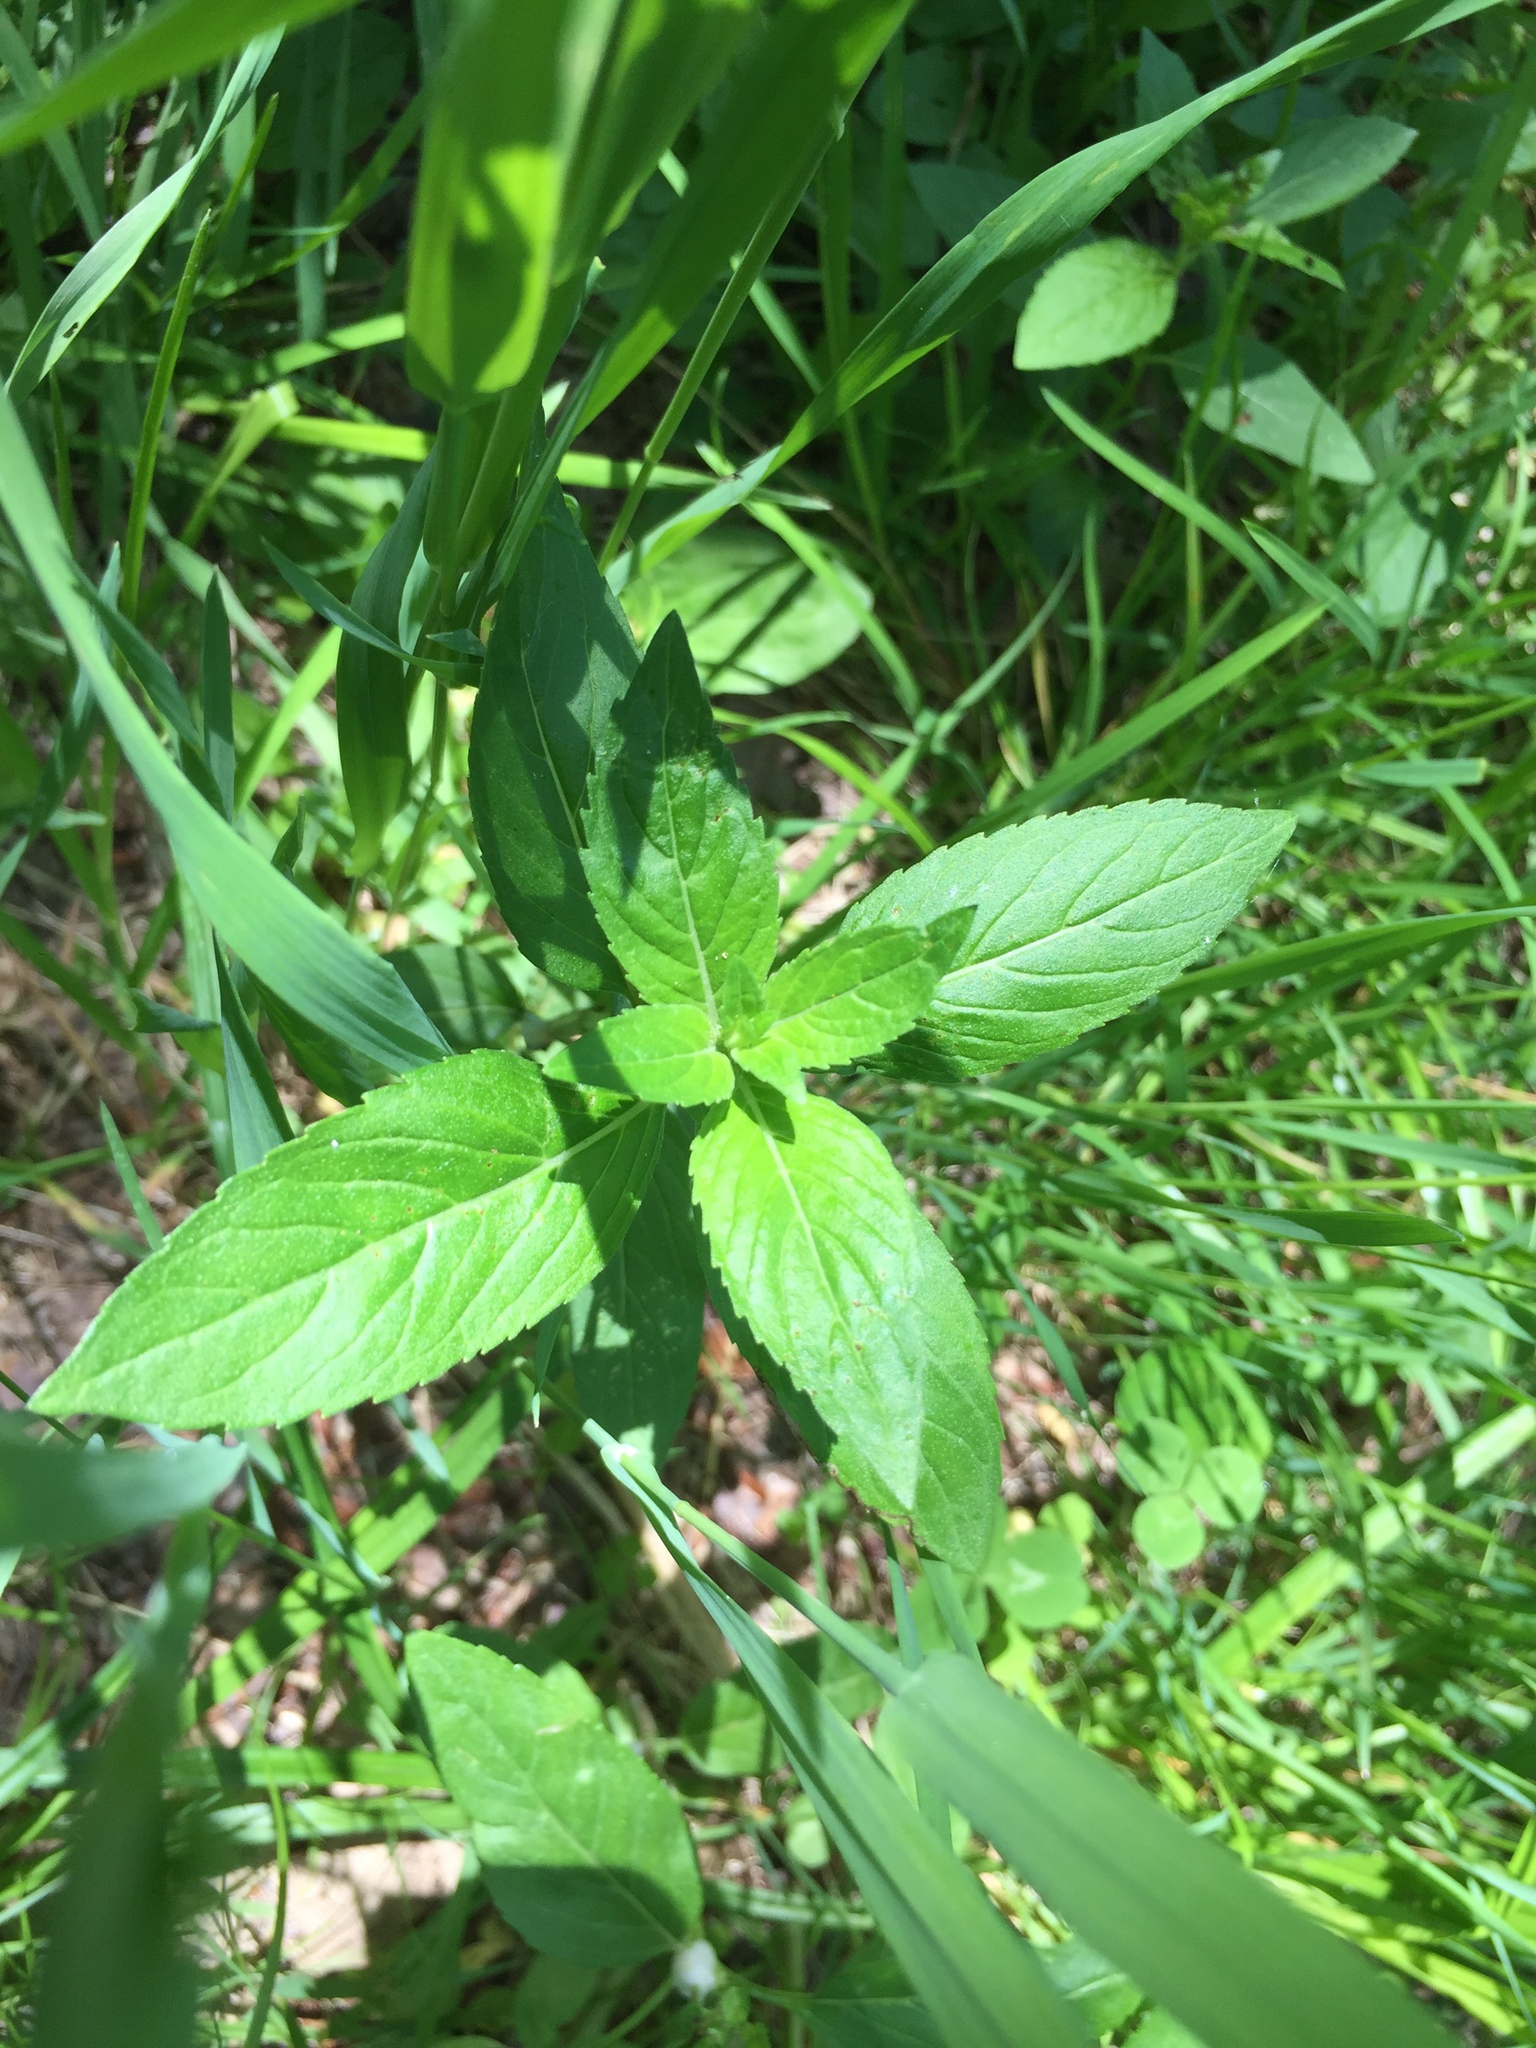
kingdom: Plantae
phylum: Tracheophyta
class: Magnoliopsida
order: Lamiales
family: Lamiaceae
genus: Mentha
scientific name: Mentha canadensis
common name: American corn mint
